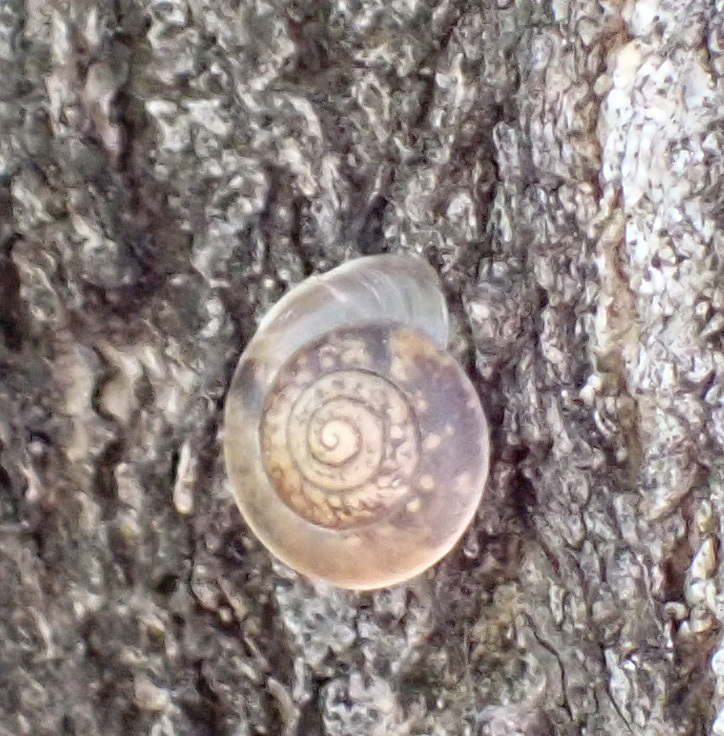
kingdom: Animalia
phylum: Mollusca
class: Gastropoda
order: Stylommatophora
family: Hygromiidae
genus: Hygromia
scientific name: Hygromia cinctella
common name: Girdled snail
